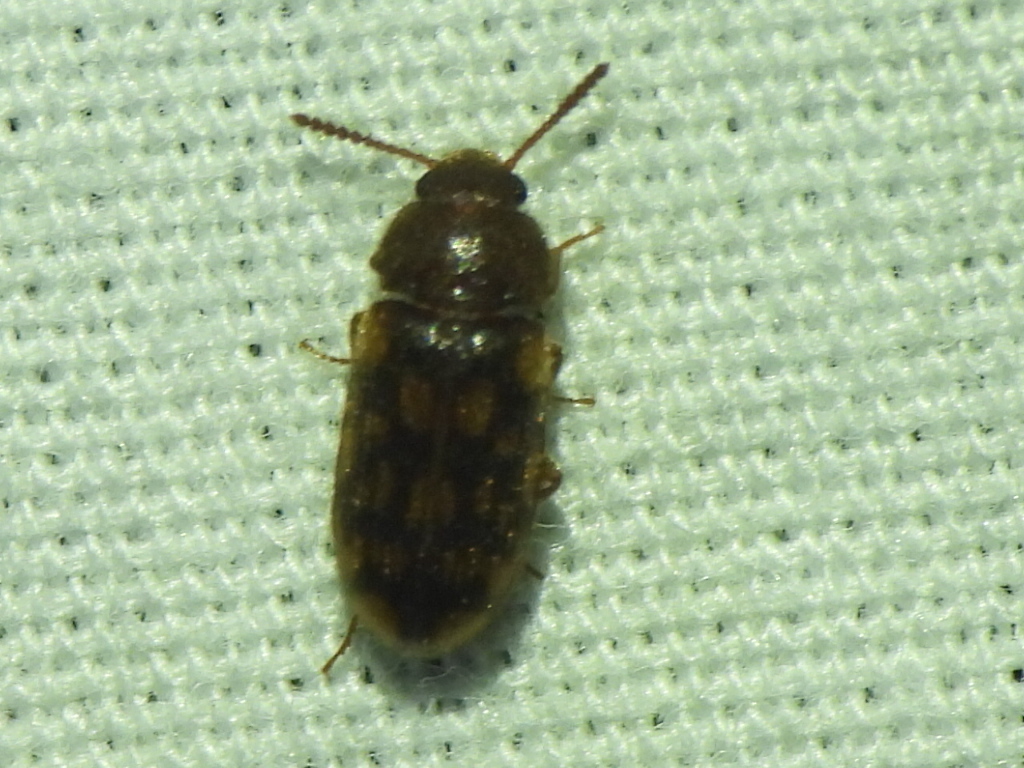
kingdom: Animalia
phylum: Arthropoda
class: Insecta
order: Coleoptera
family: Mycetophagidae
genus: Mycetophagus
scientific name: Mycetophagus pluripunctatus
